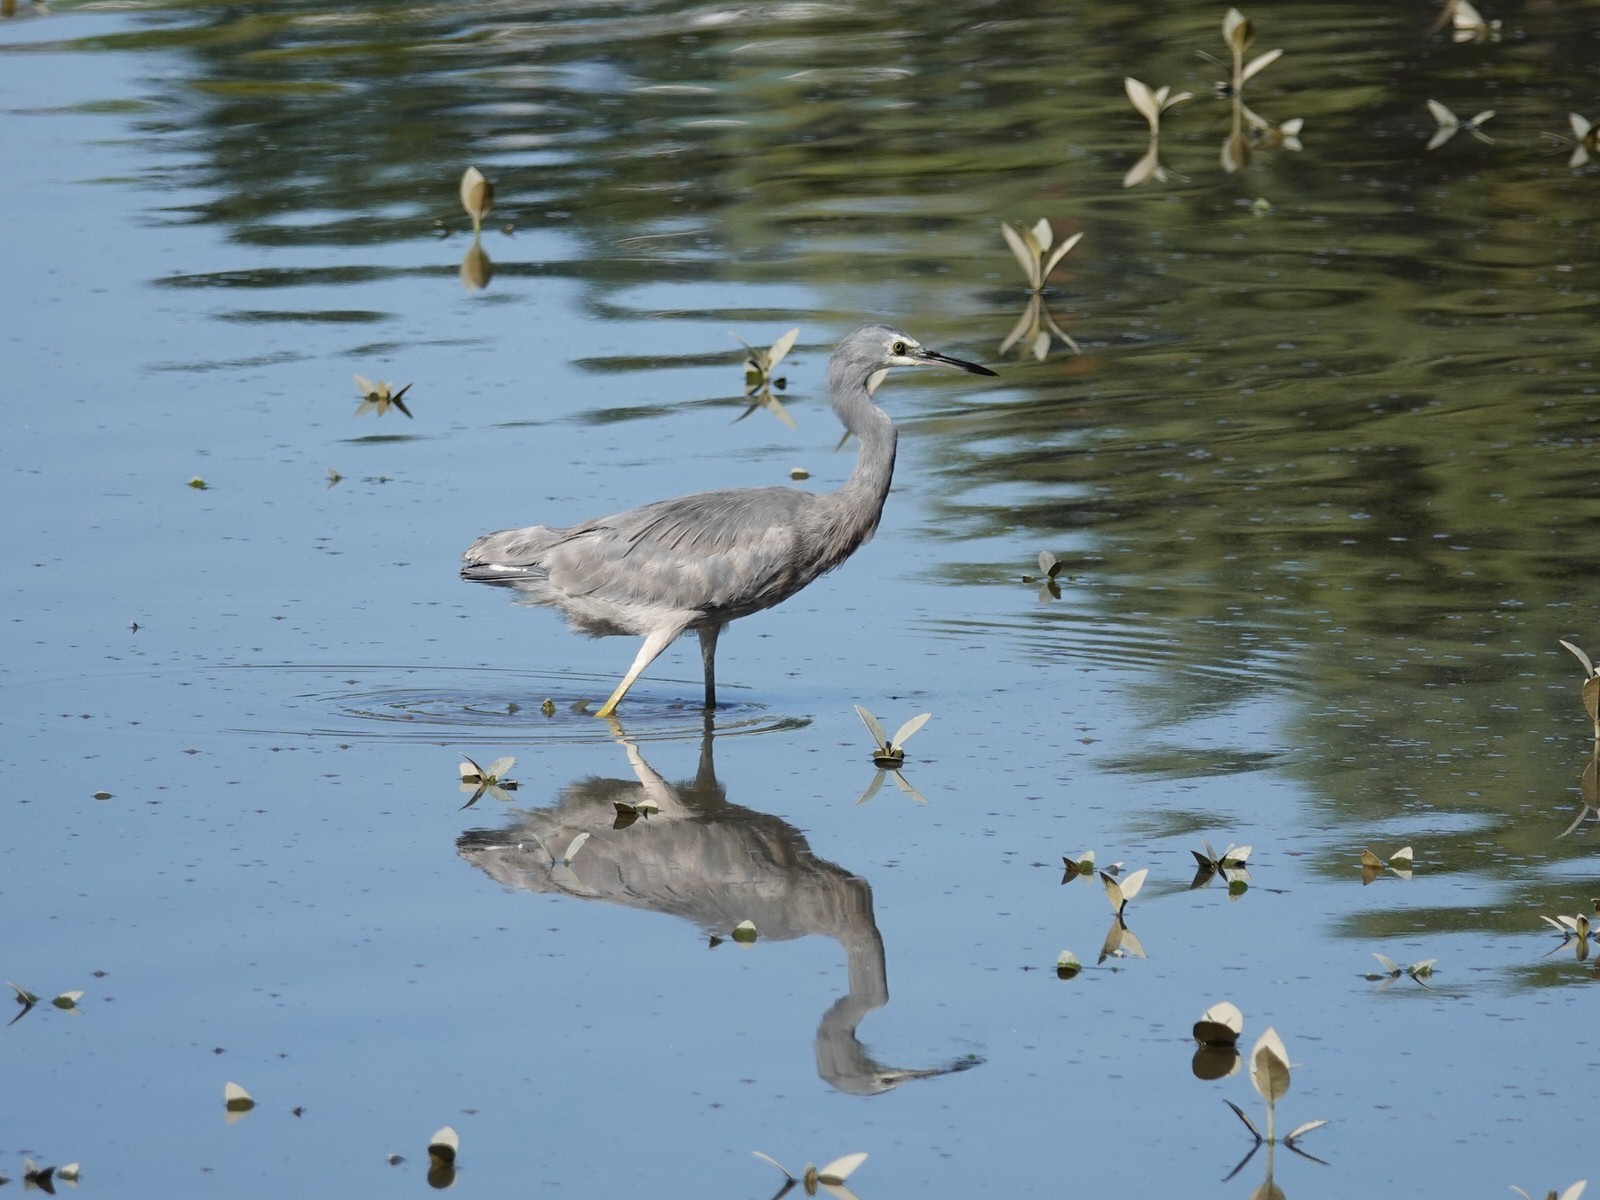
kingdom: Animalia
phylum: Chordata
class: Aves
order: Pelecaniformes
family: Ardeidae
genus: Egretta
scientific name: Egretta novaehollandiae
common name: White-faced heron
